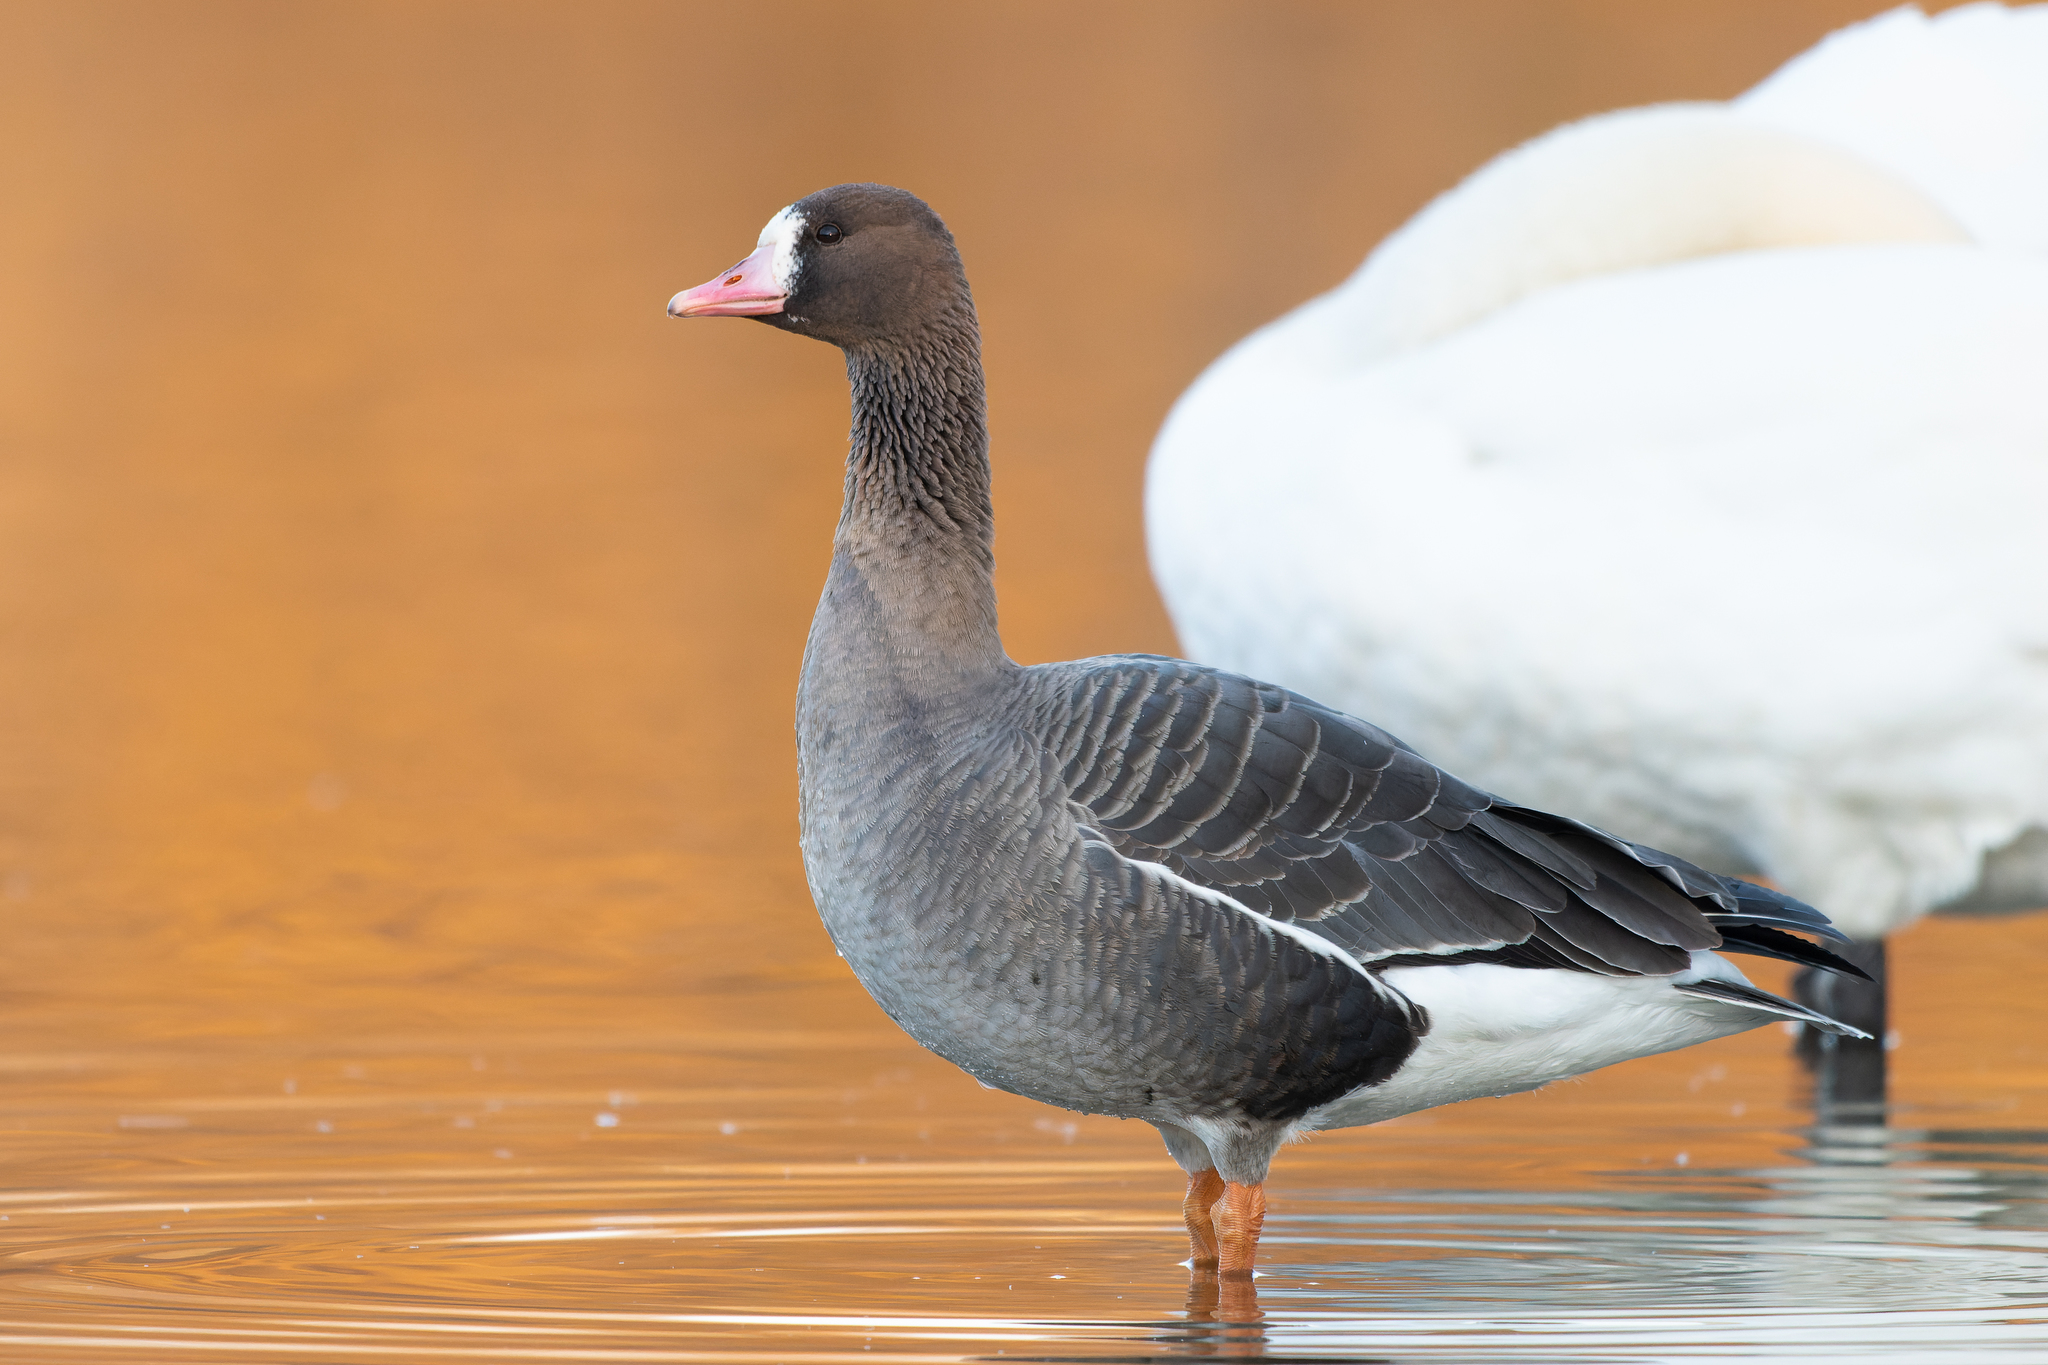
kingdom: Animalia
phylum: Chordata
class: Aves
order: Anseriformes
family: Anatidae
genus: Anser
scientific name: Anser albifrons
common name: Greater white-fronted goose
